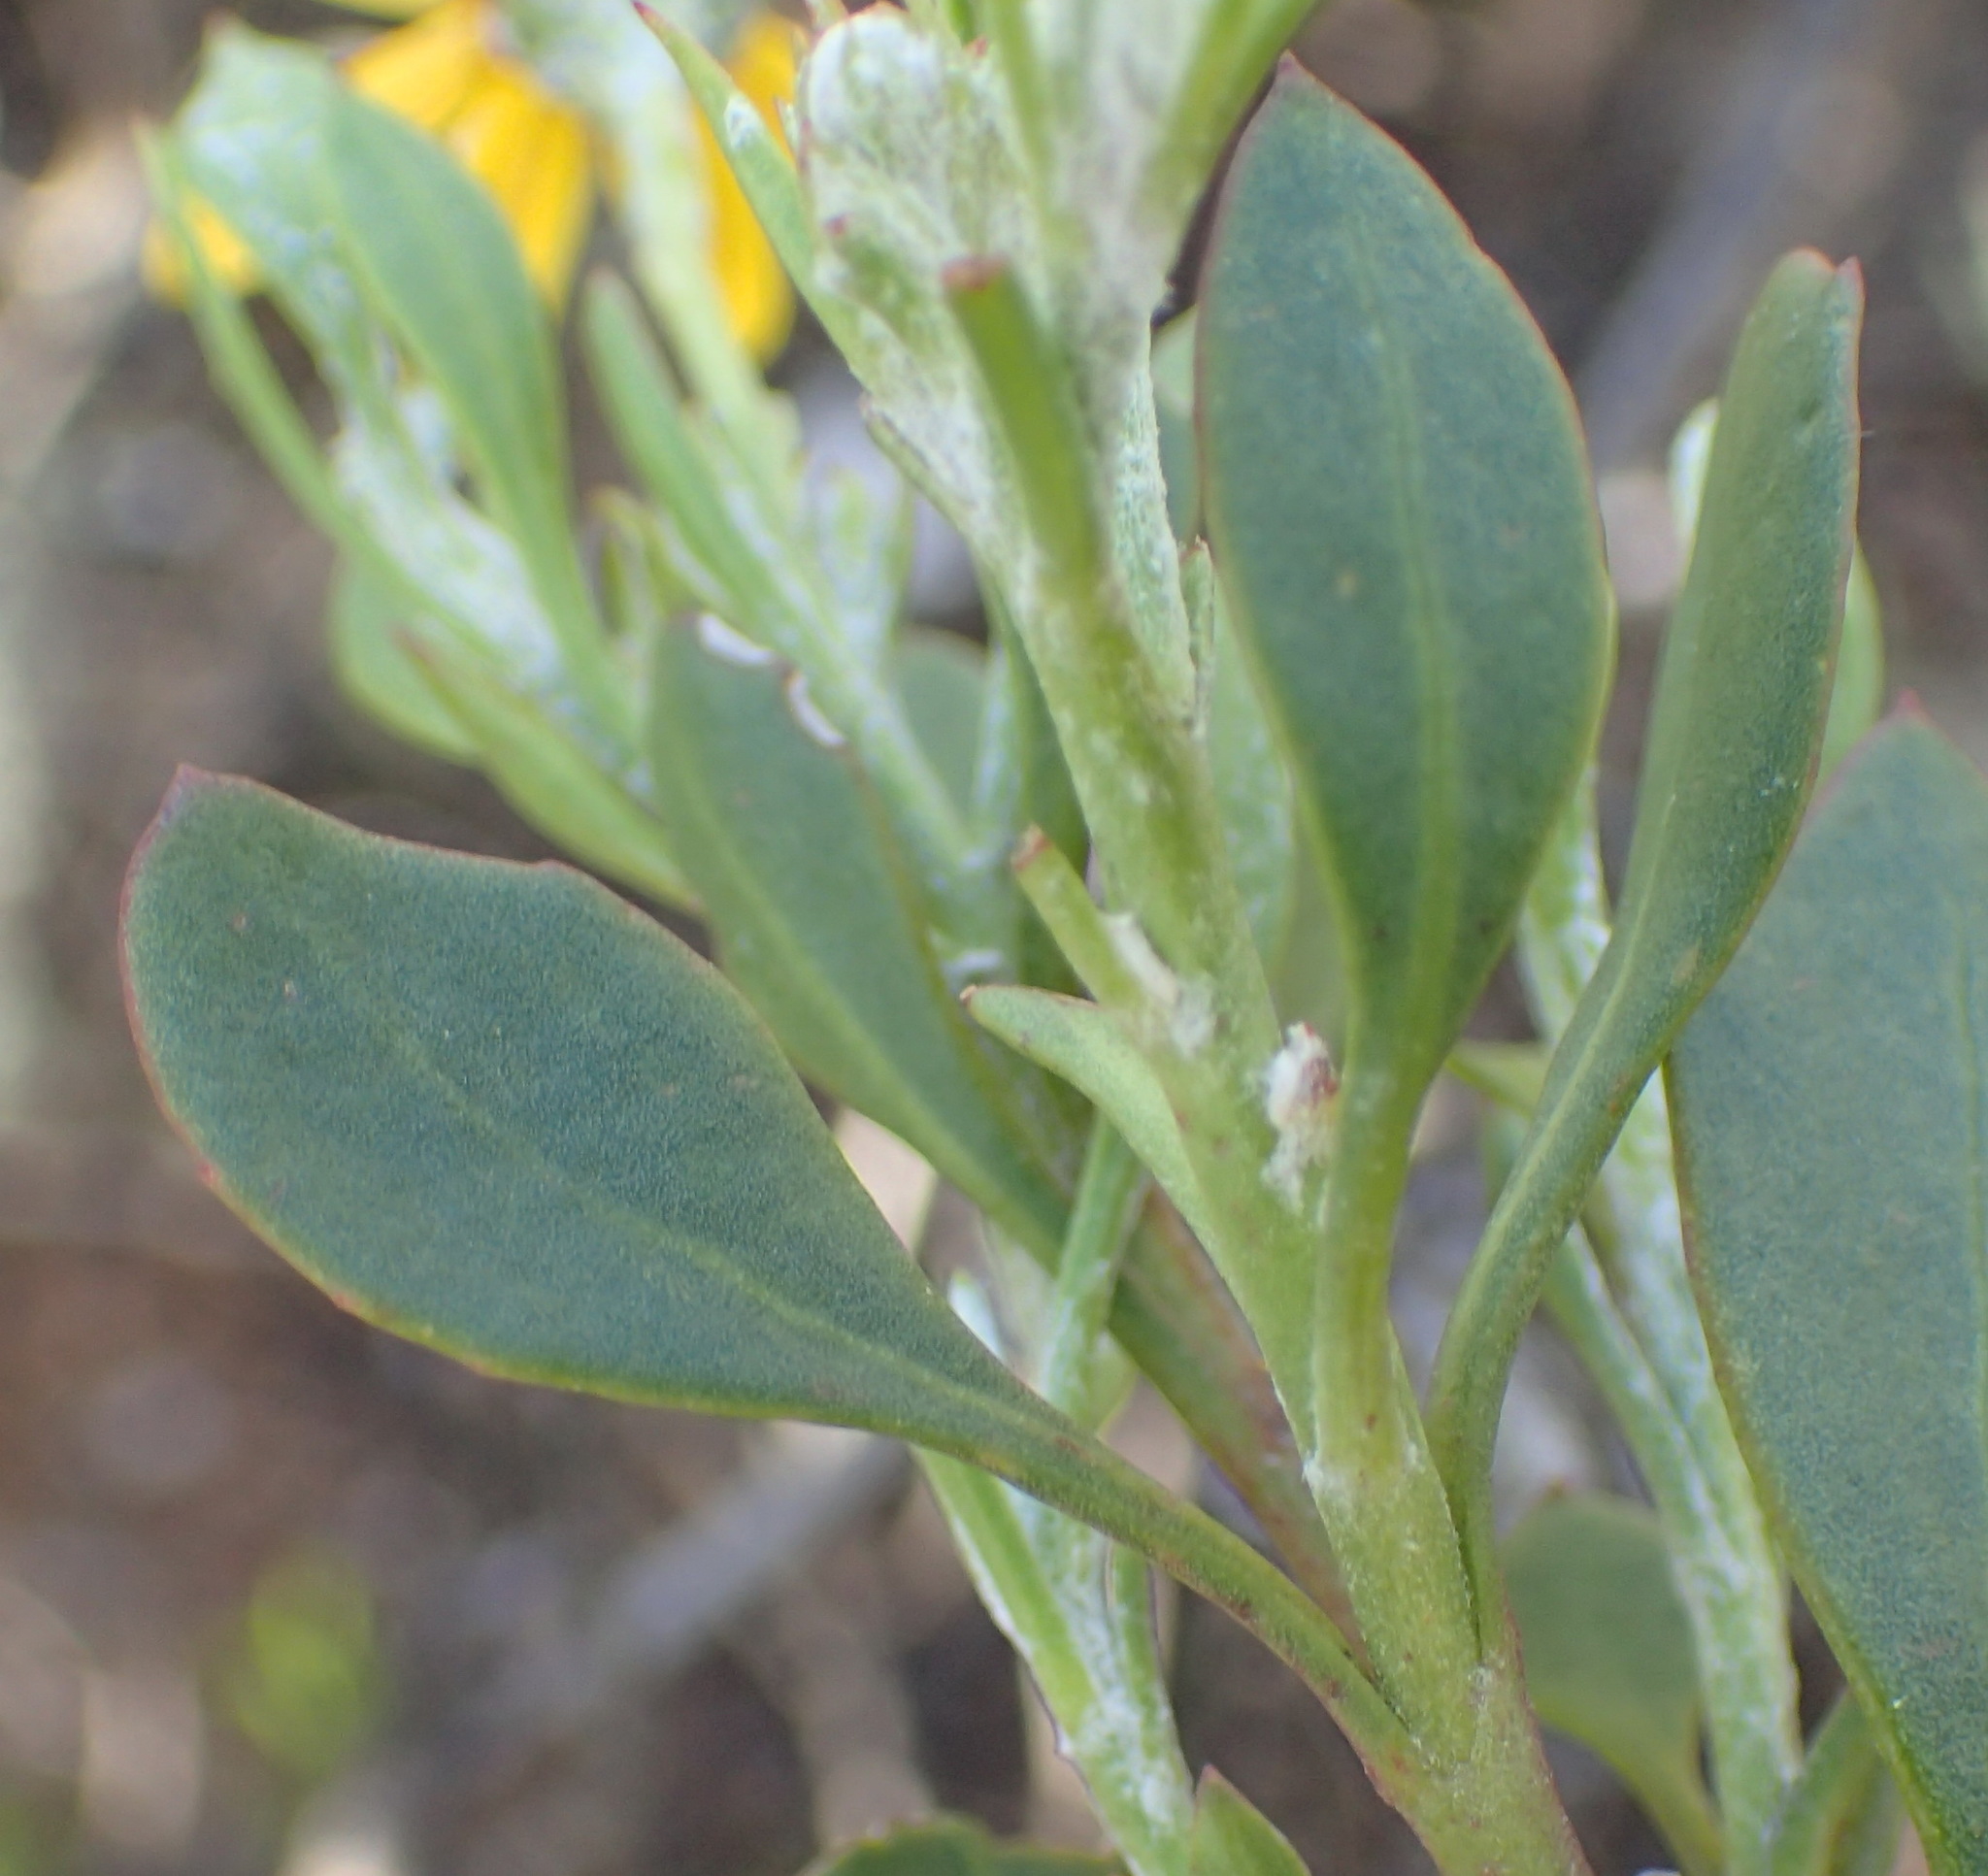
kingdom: Plantae
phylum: Tracheophyta
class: Magnoliopsida
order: Asterales
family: Asteraceae
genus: Osteospermum
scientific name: Osteospermum moniliferum
